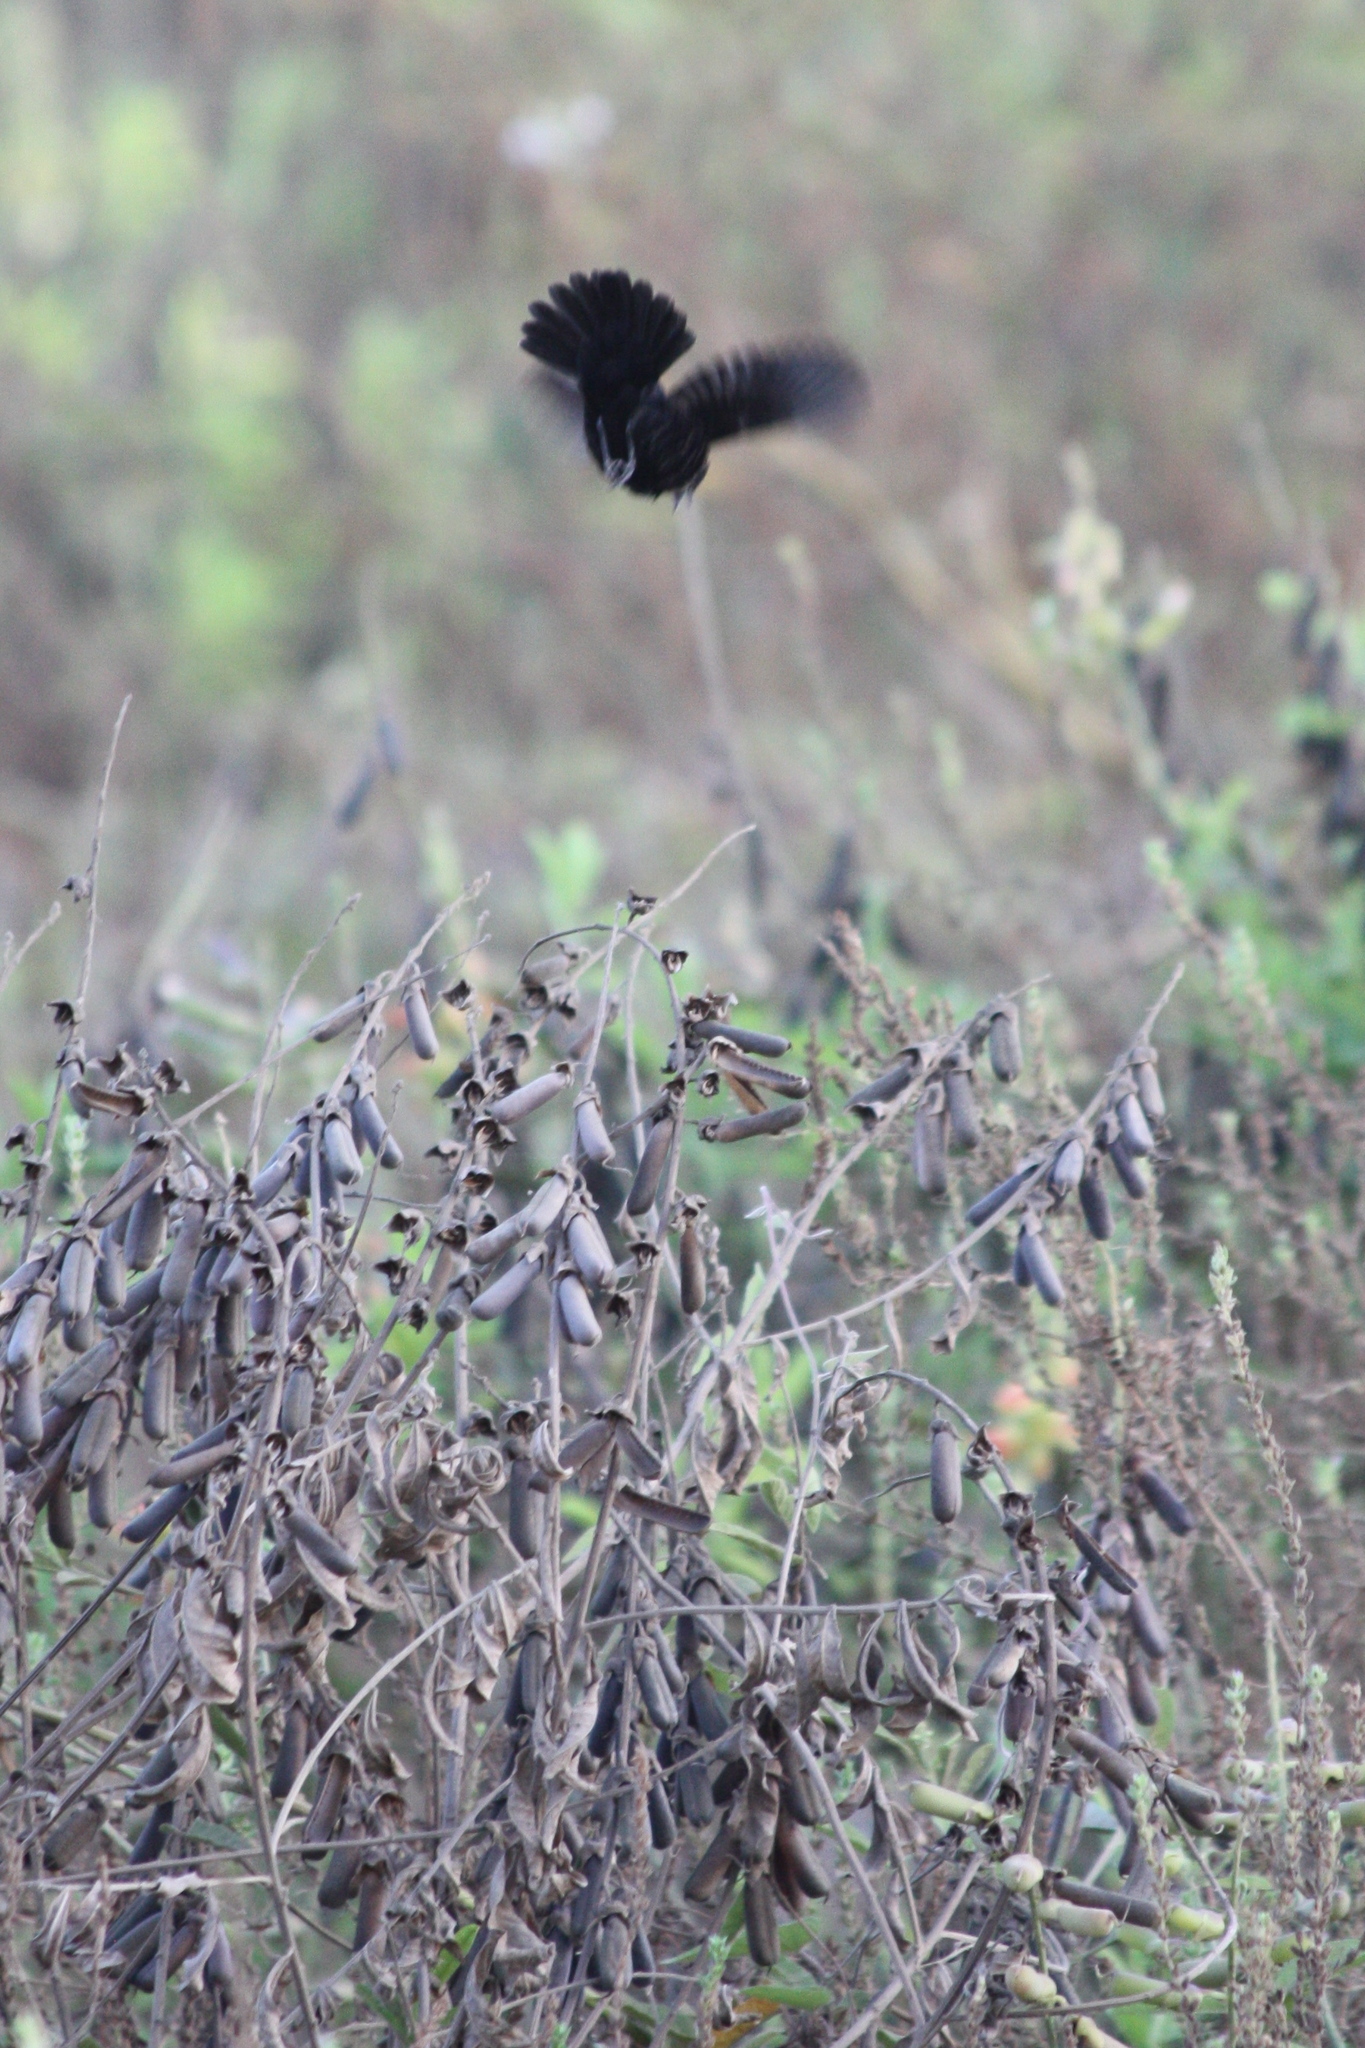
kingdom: Animalia
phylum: Chordata
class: Aves
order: Passeriformes
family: Thraupidae
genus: Volatinia
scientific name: Volatinia jacarina
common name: Blue-black grassquit
